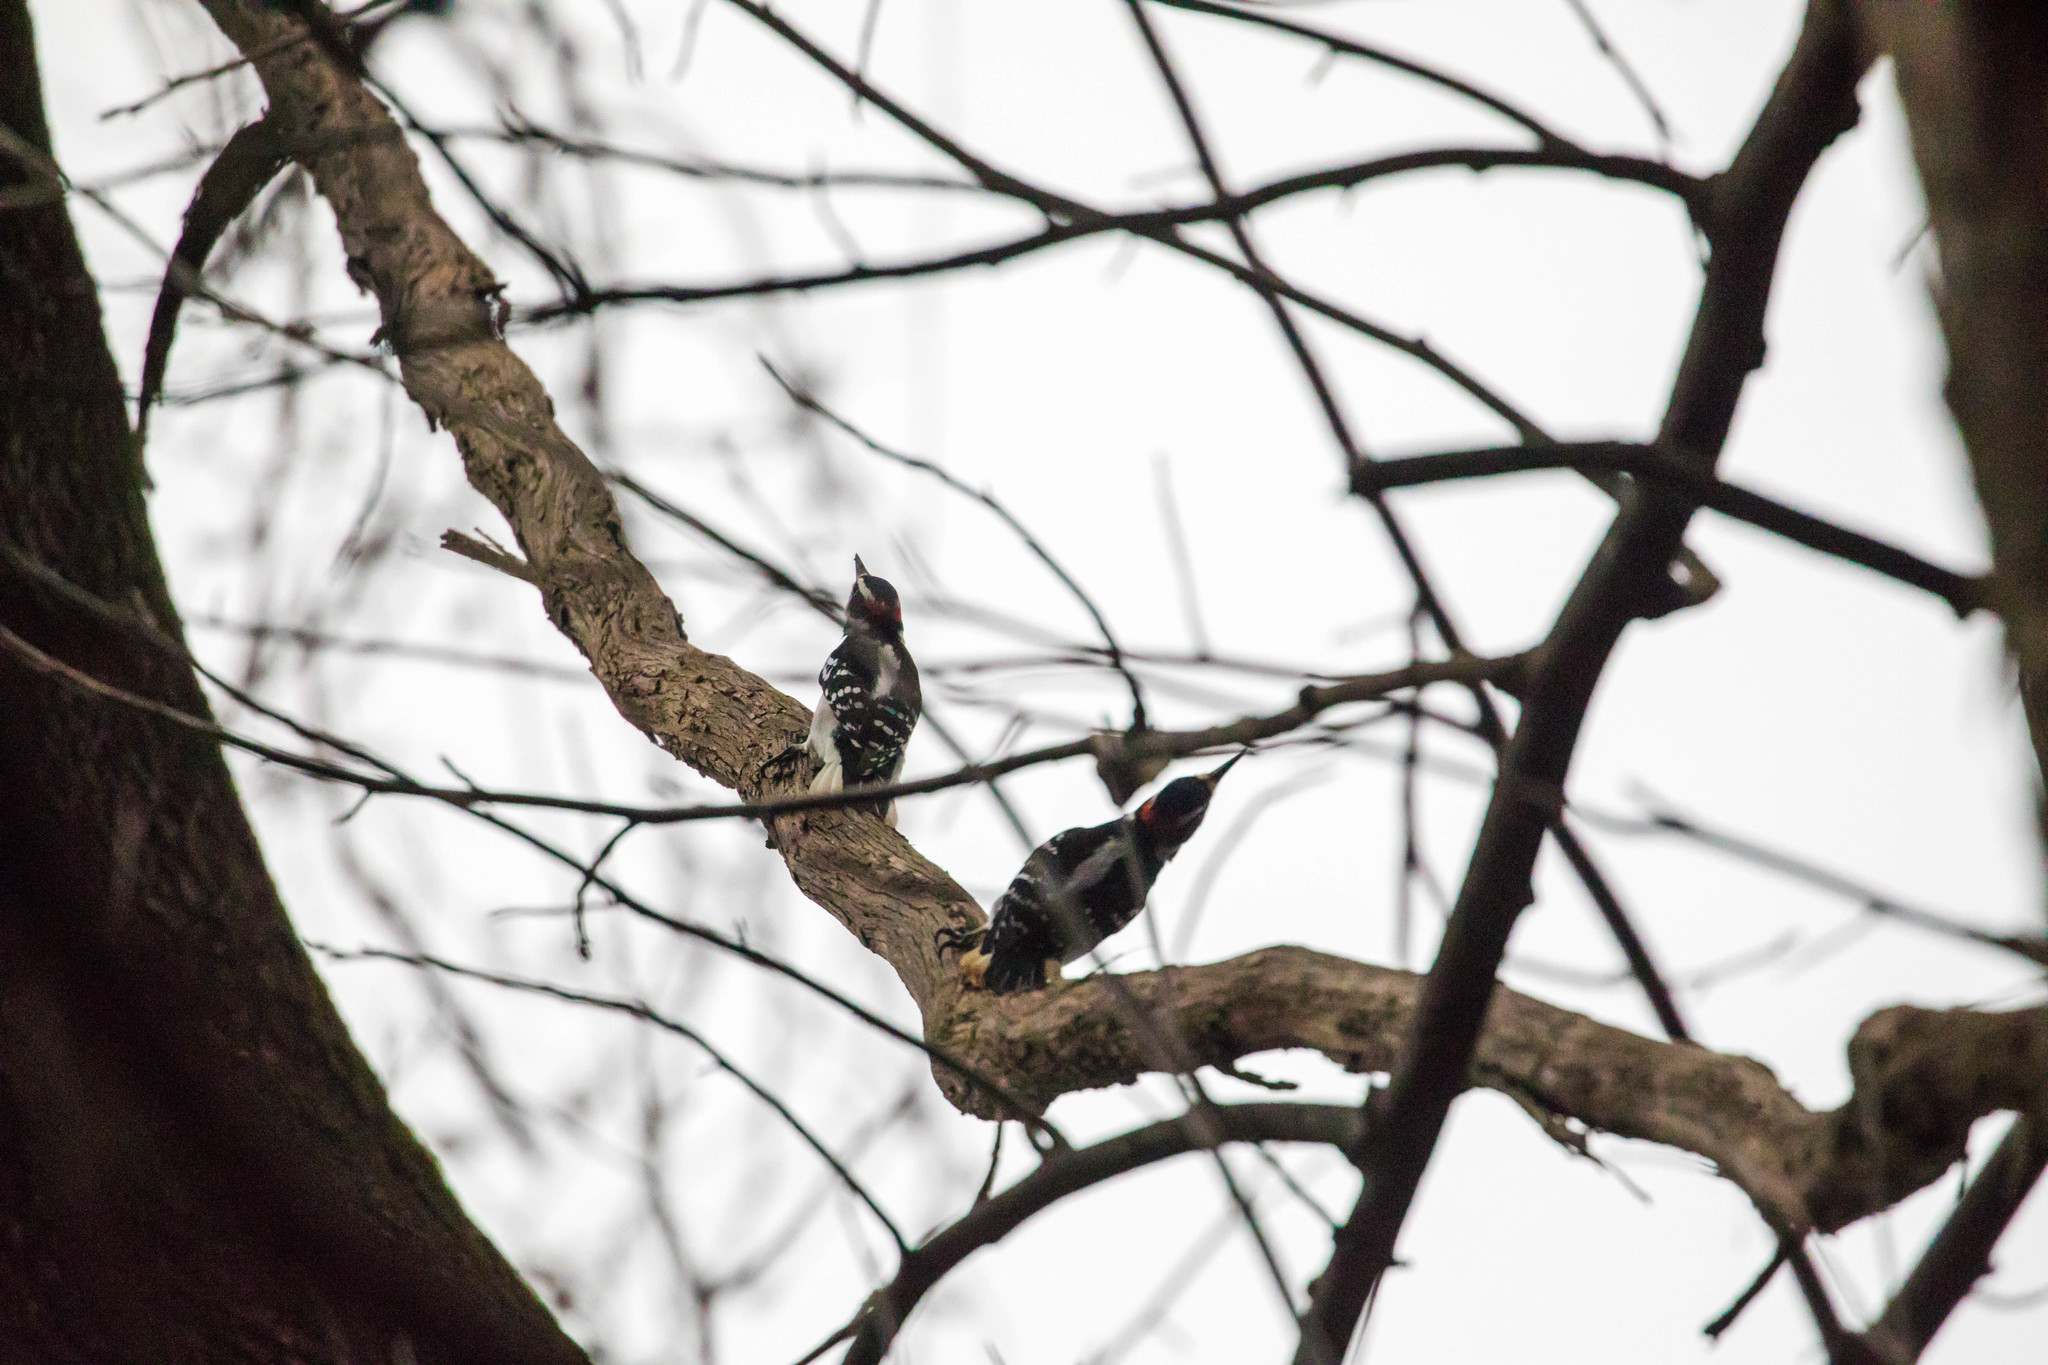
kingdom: Animalia
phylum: Chordata
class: Aves
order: Piciformes
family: Picidae
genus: Leuconotopicus
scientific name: Leuconotopicus villosus
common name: Hairy woodpecker
